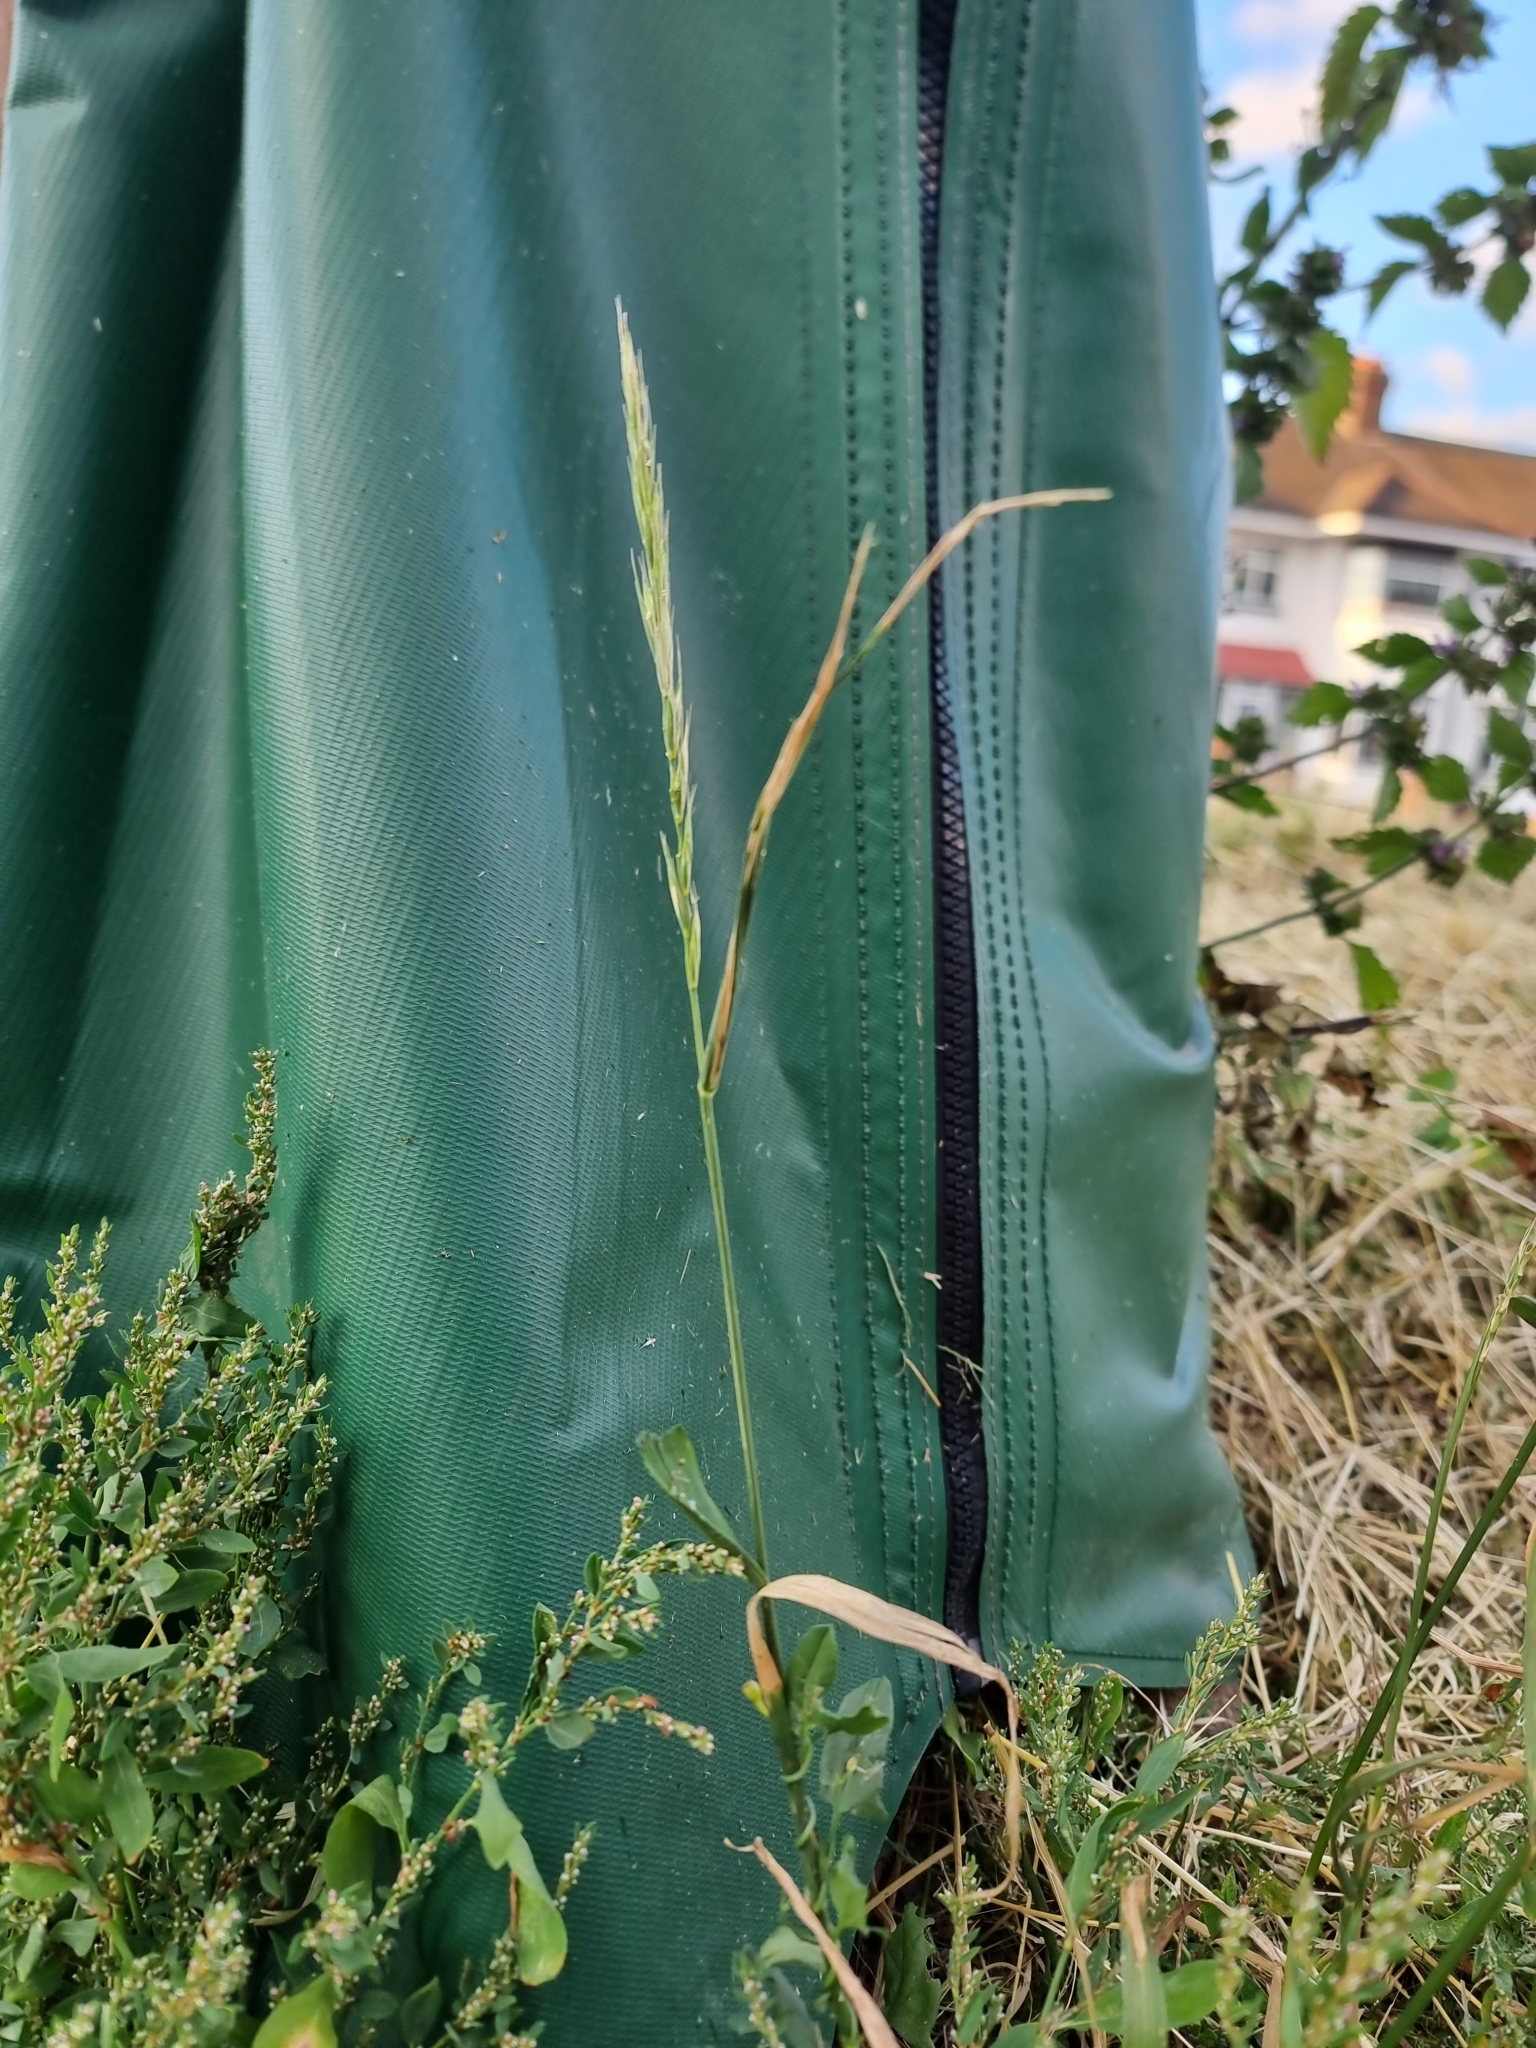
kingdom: Plantae
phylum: Tracheophyta
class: Liliopsida
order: Poales
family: Poaceae
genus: Elymus
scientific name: Elymus repens
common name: Quackgrass
